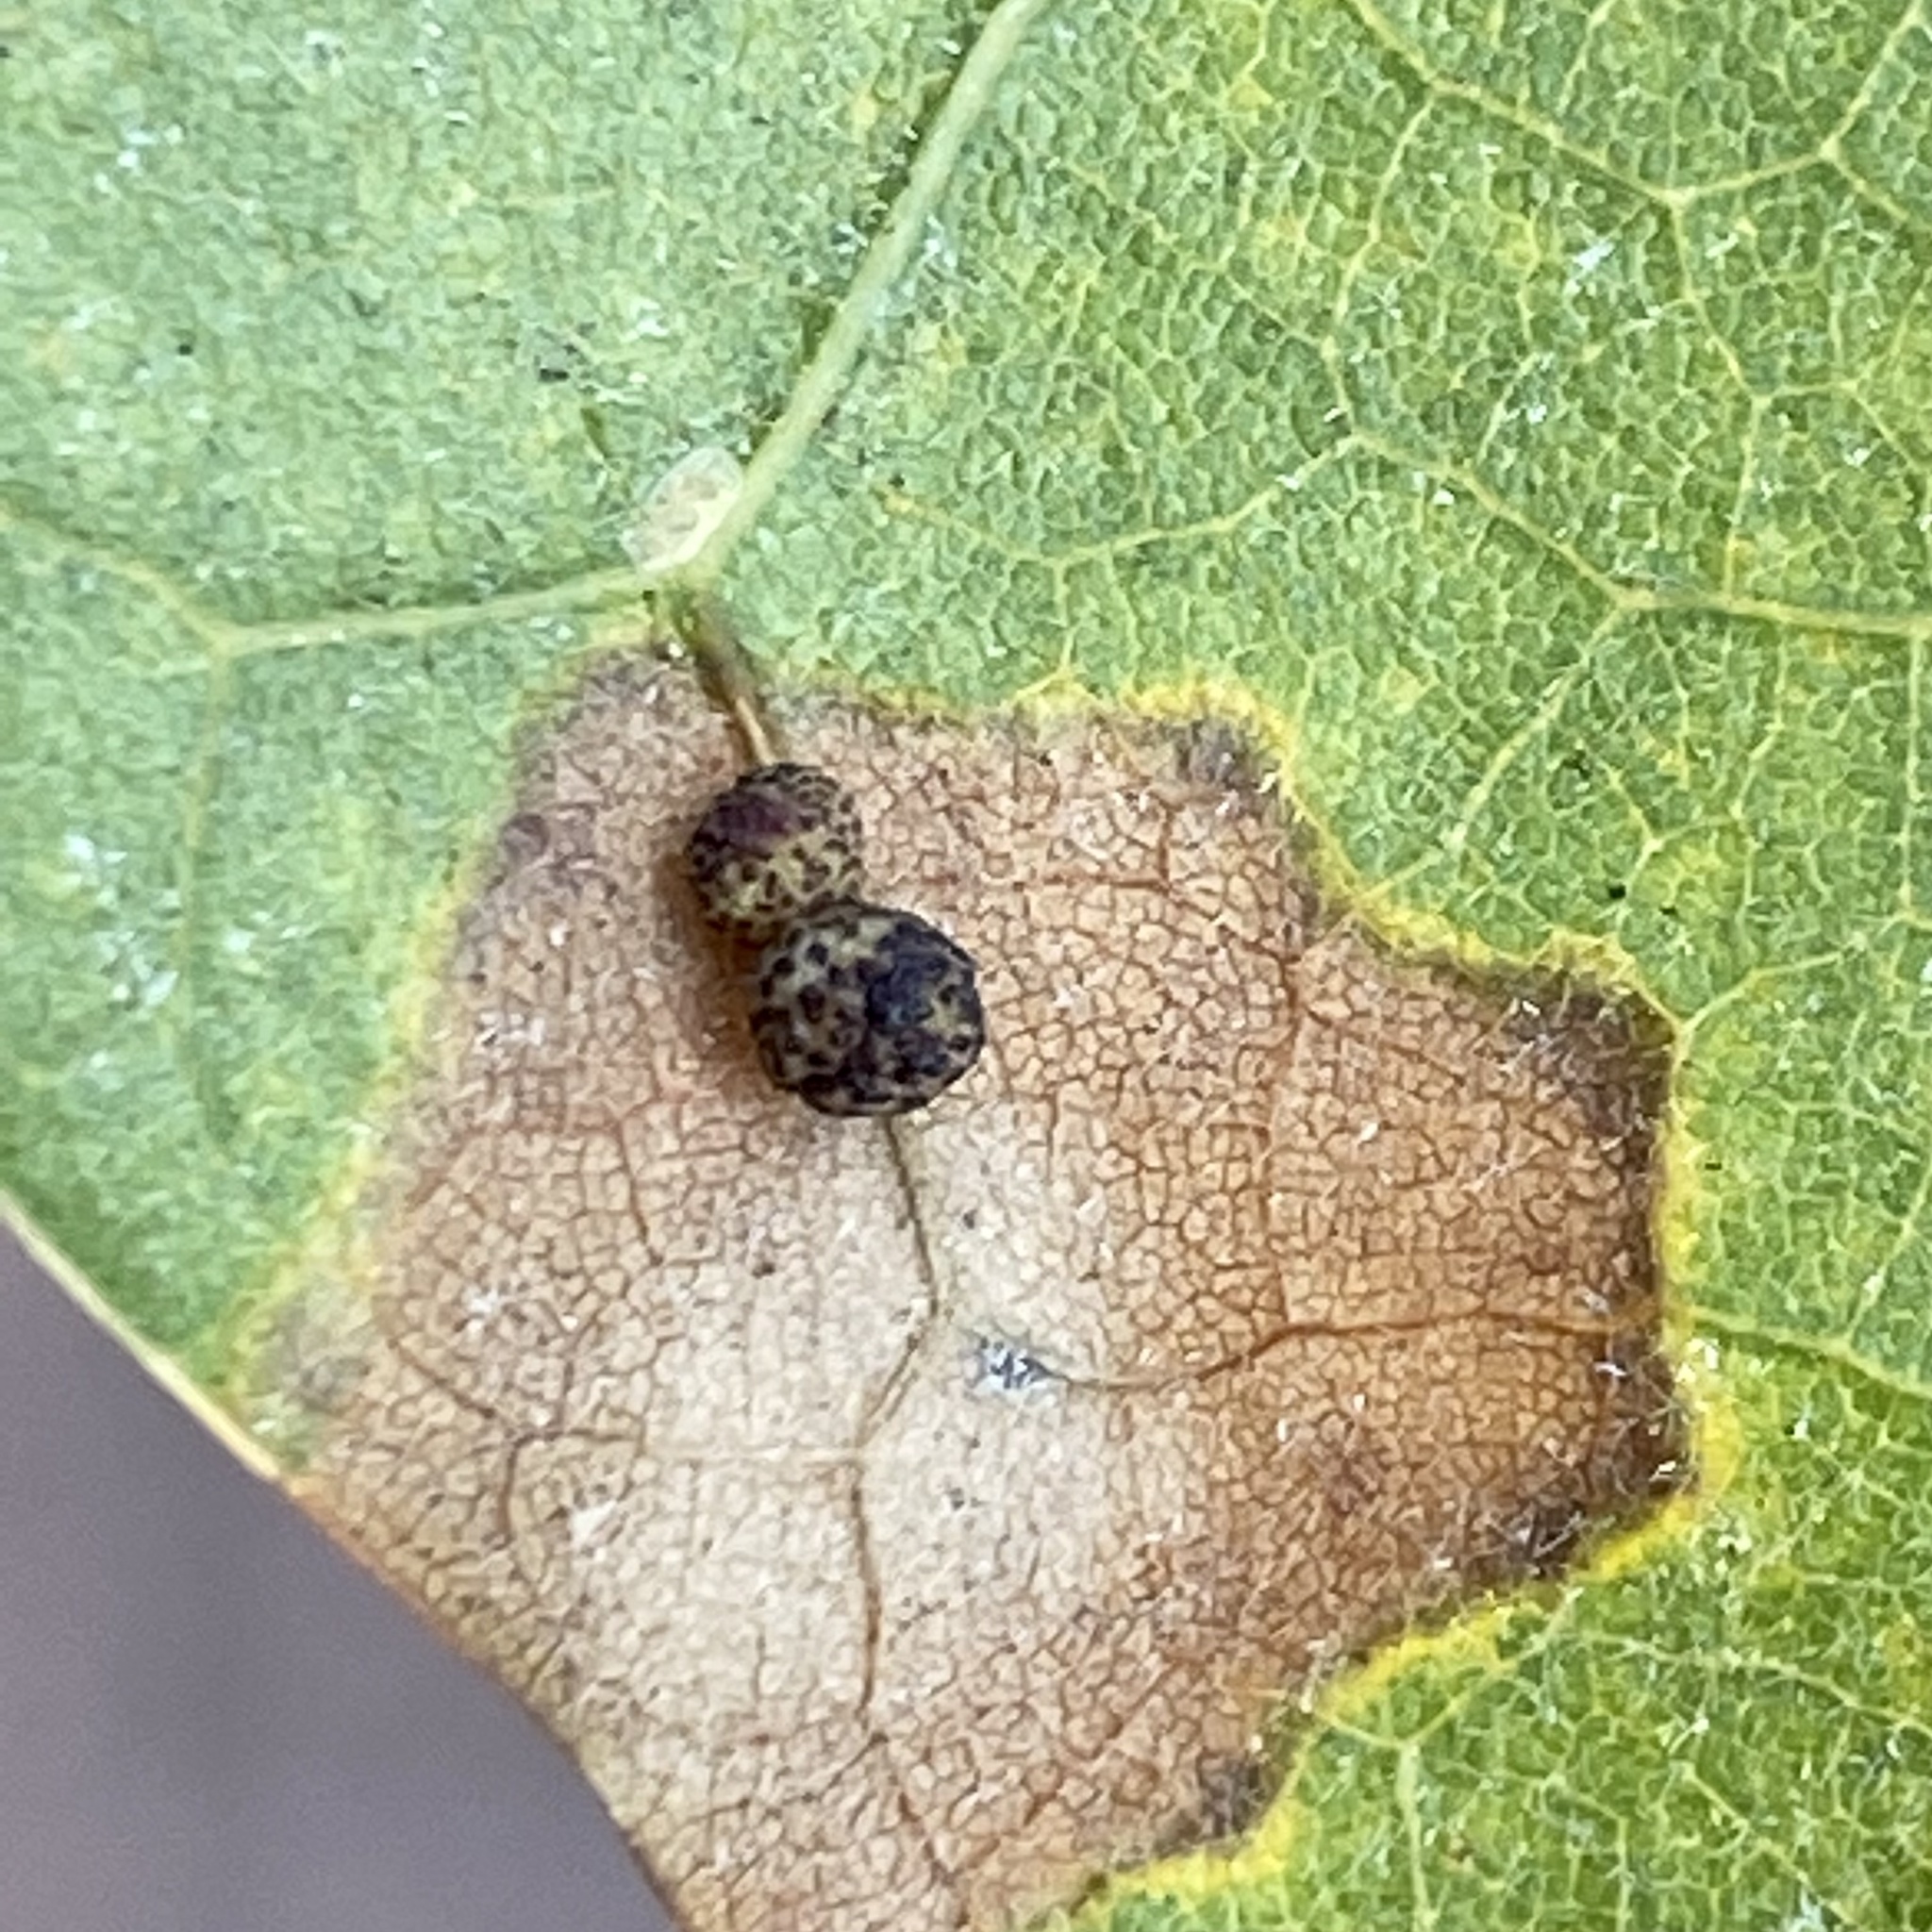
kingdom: Animalia
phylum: Arthropoda
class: Insecta
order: Hymenoptera
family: Cynipidae
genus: Zopheroteras
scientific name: Zopheroteras
